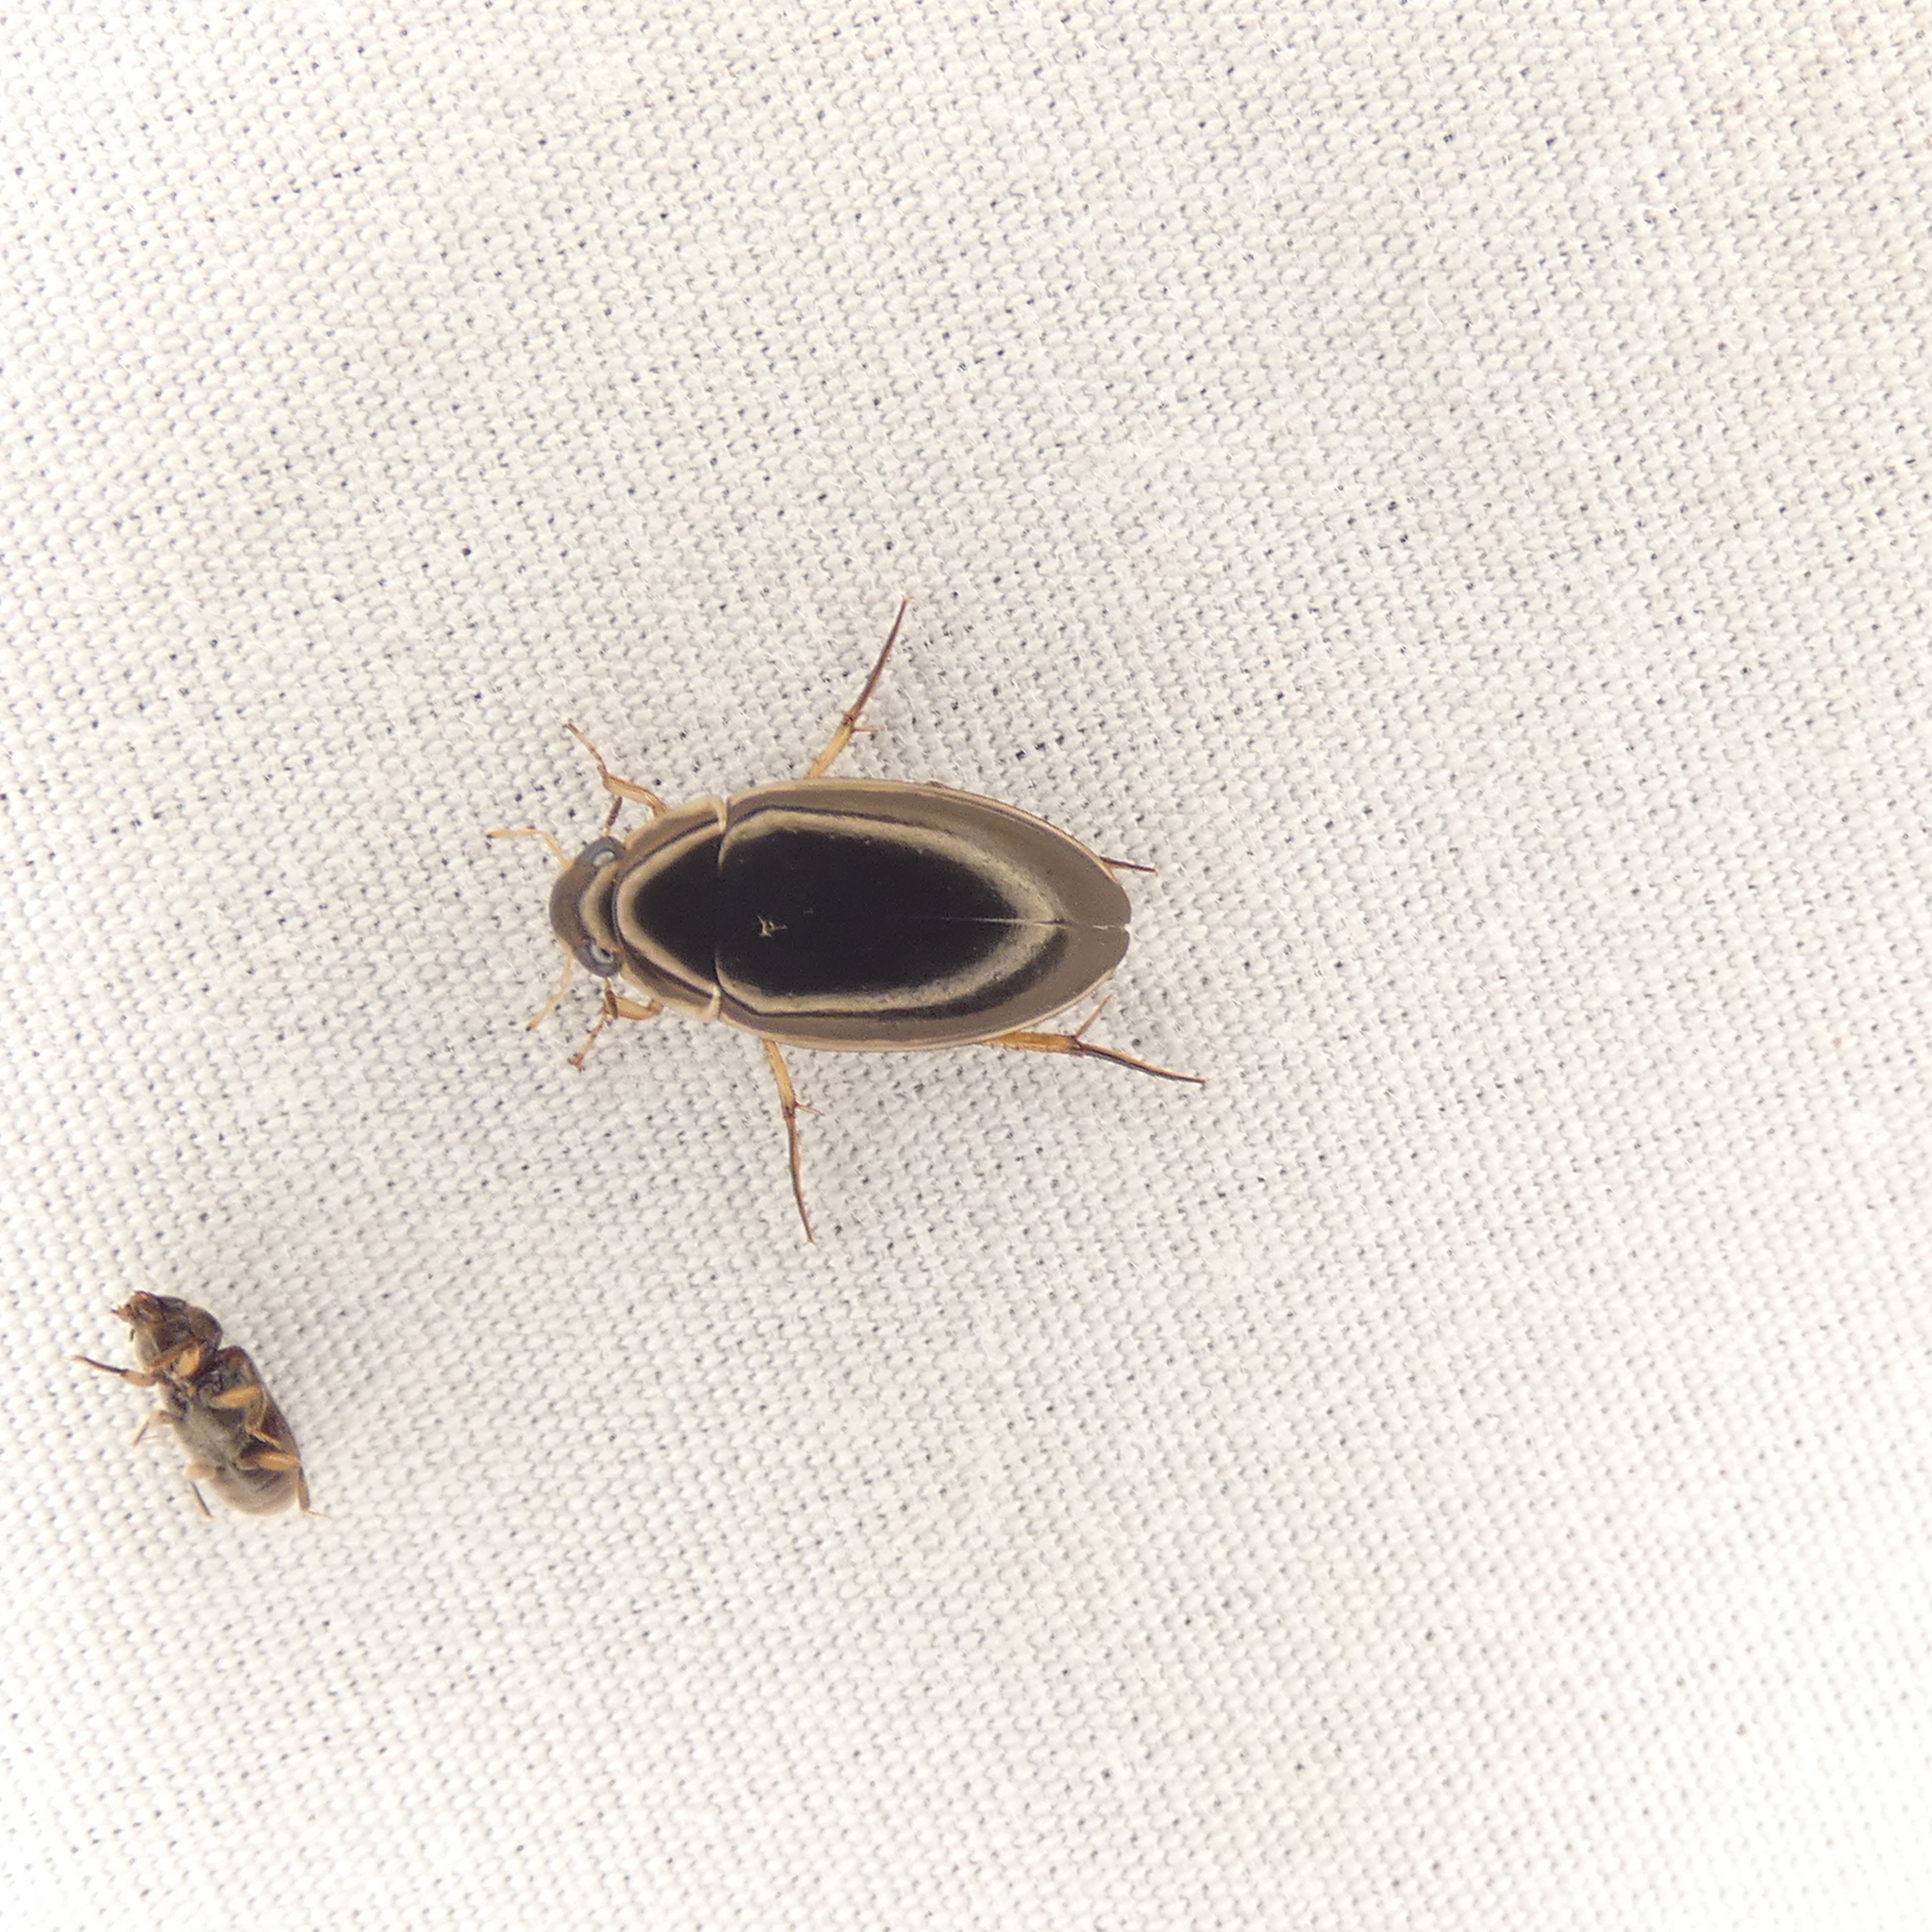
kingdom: Animalia
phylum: Arthropoda
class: Insecta
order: Coleoptera
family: Hydrophilidae
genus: Tropisternus
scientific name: Tropisternus lateralis
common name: Lateral-banded water scavenger beetle
